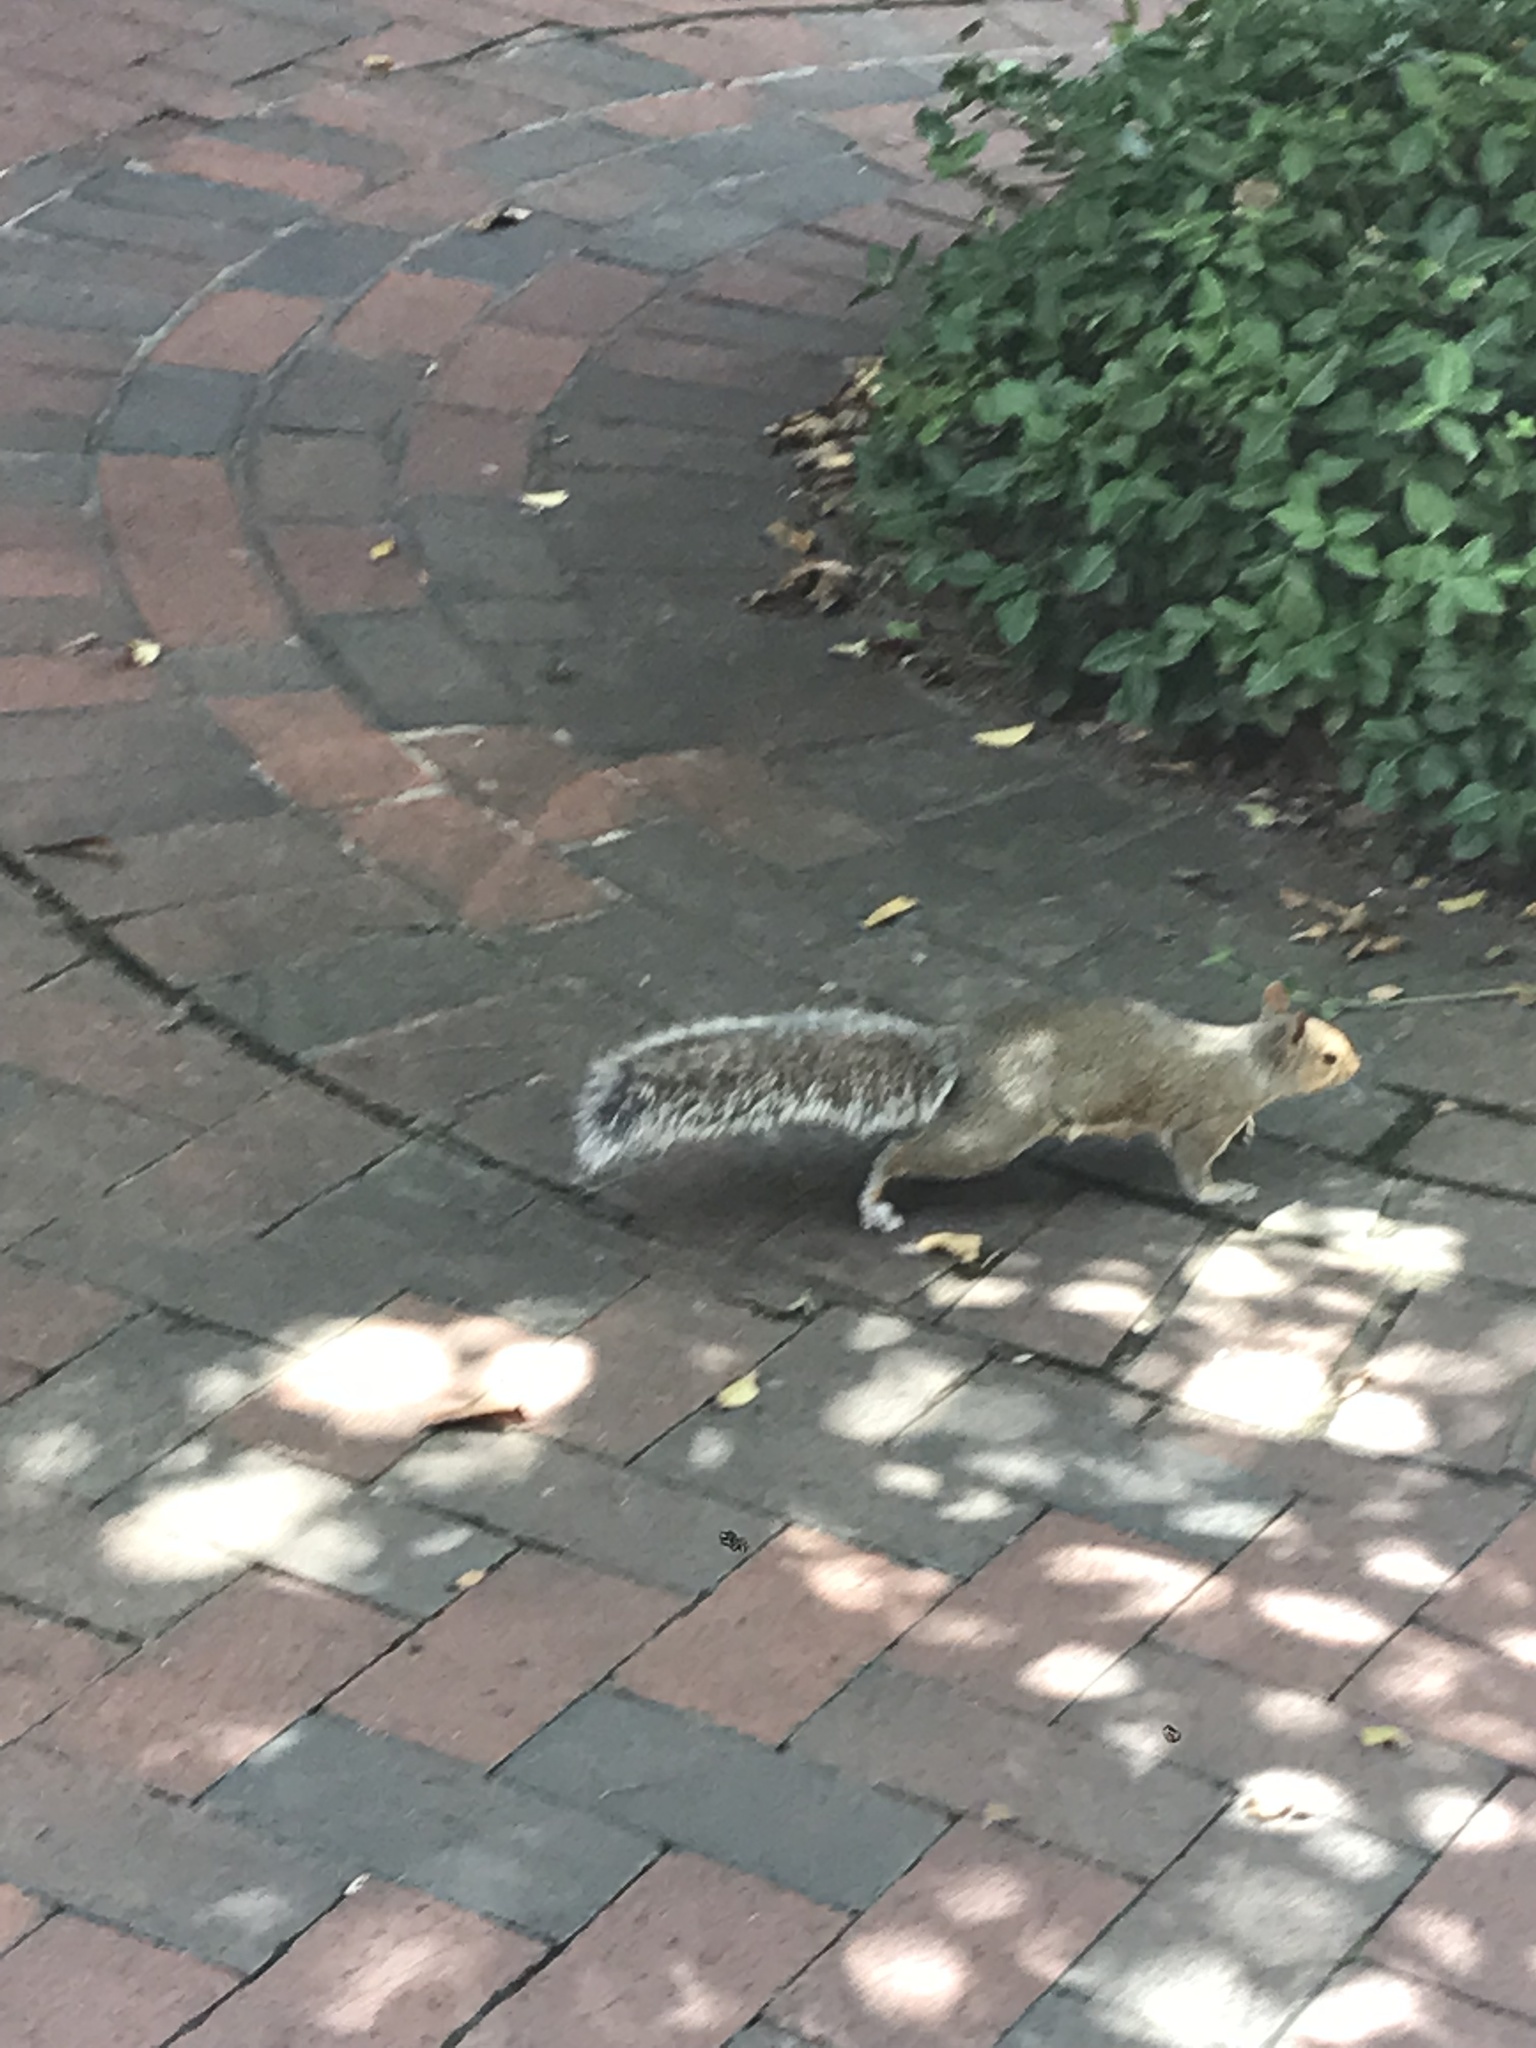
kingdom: Animalia
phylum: Chordata
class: Mammalia
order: Rodentia
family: Sciuridae
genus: Sciurus
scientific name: Sciurus carolinensis
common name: Eastern gray squirrel
